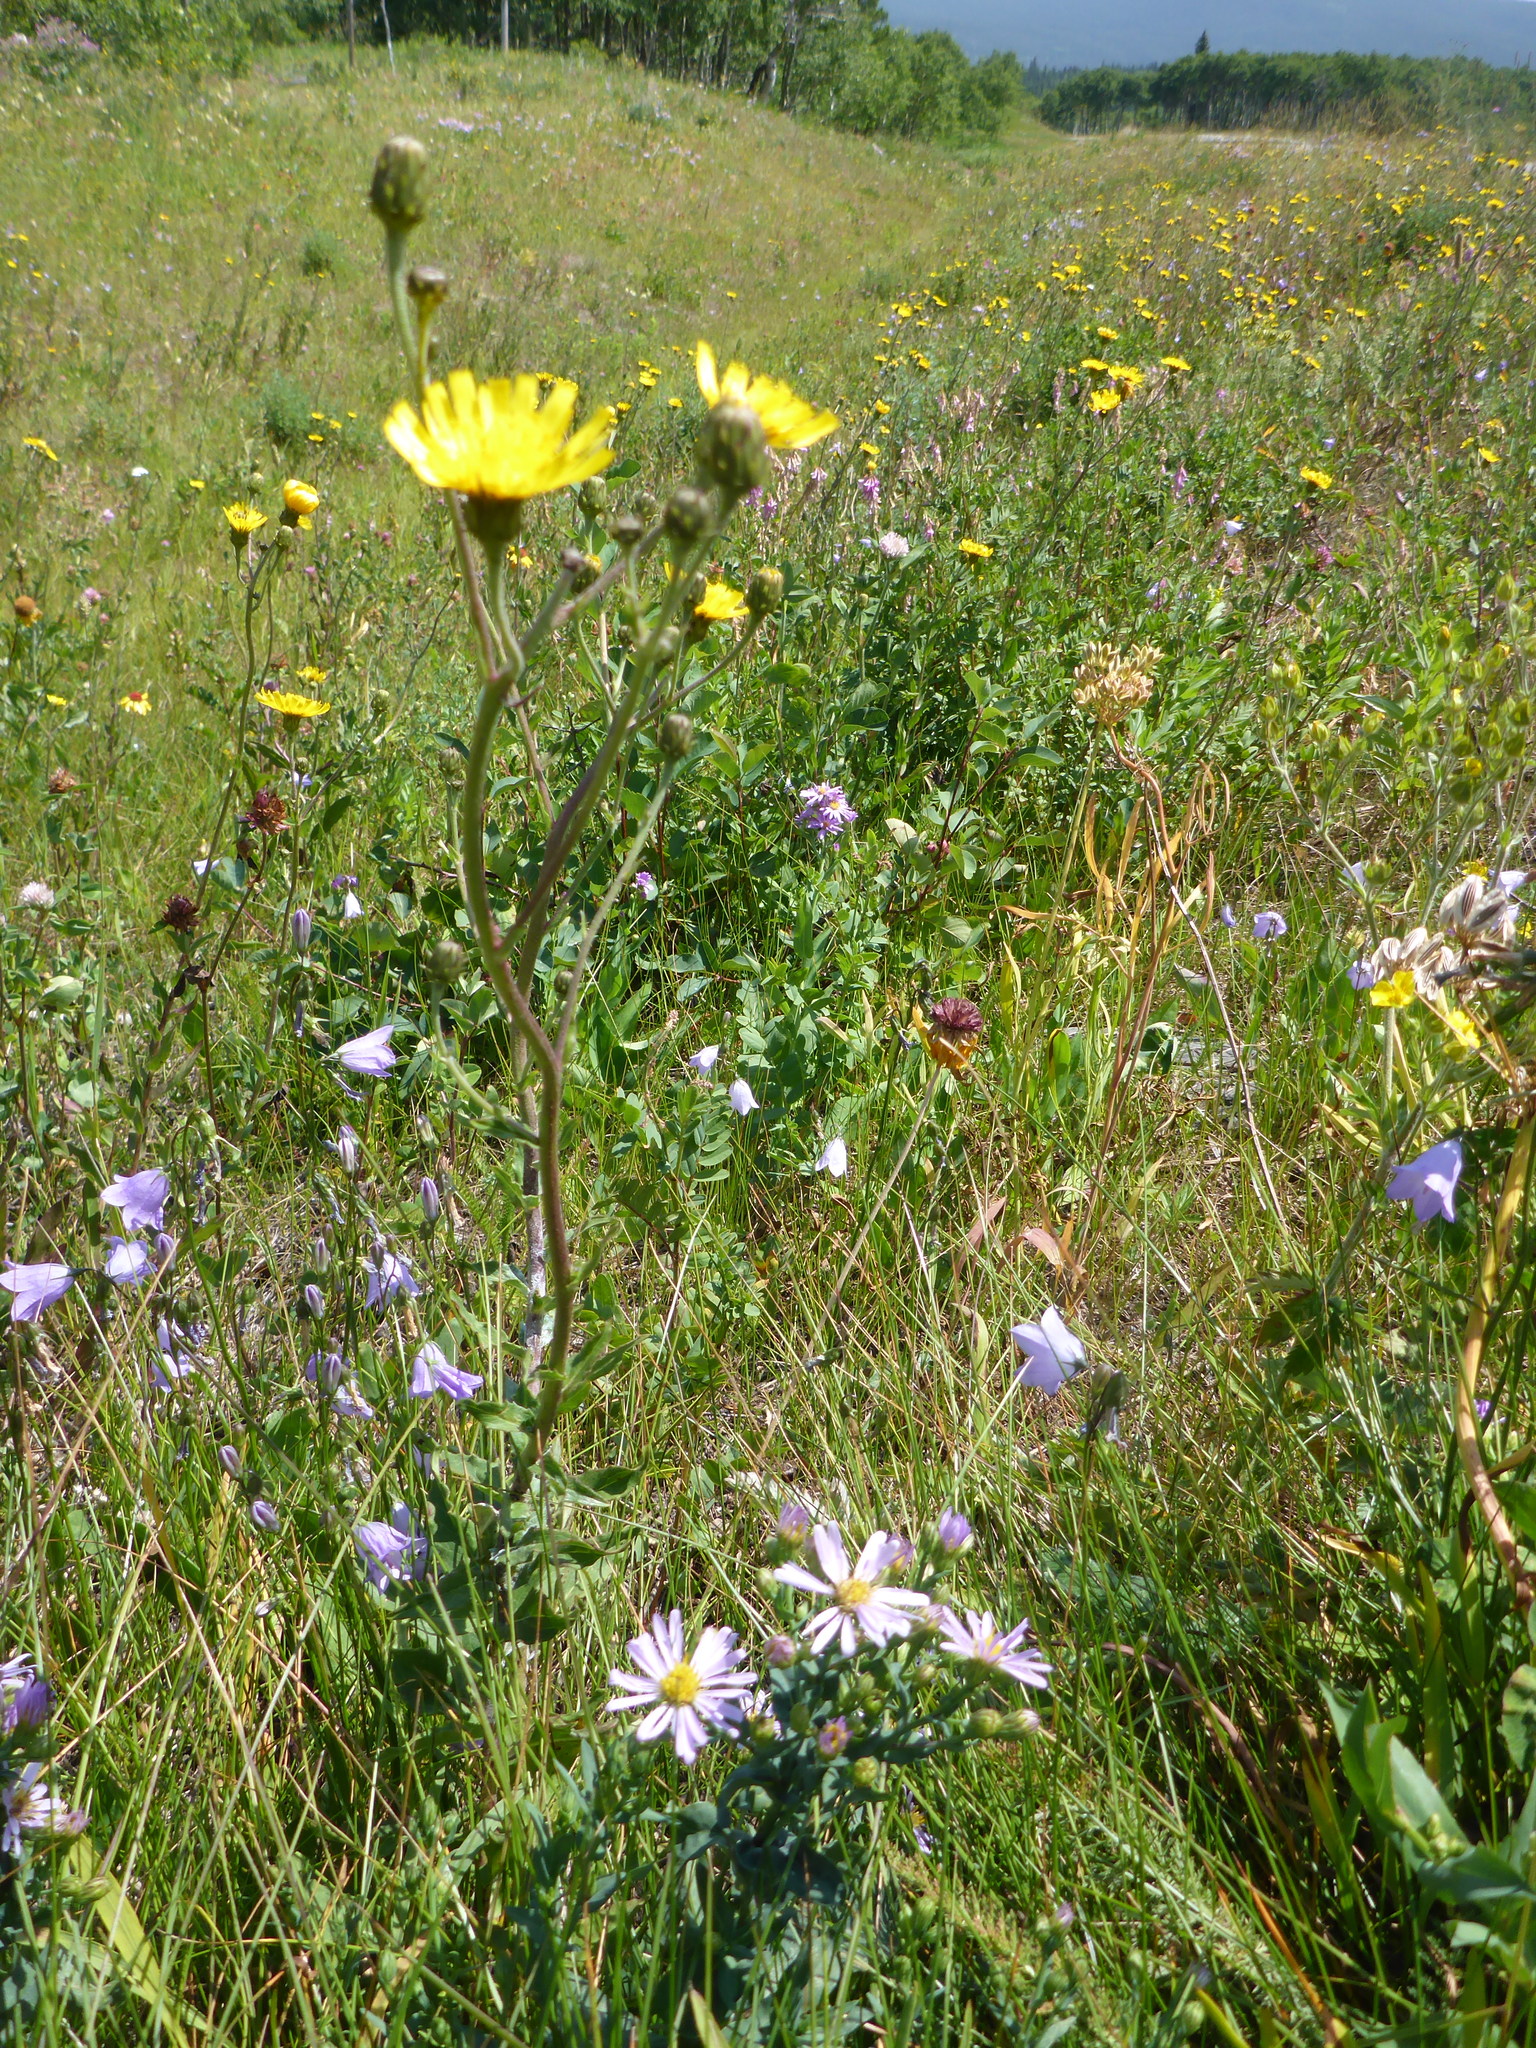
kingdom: Plantae
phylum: Tracheophyta
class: Magnoliopsida
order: Asterales
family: Asteraceae
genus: Hieracium
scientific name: Hieracium umbellatum
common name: Northern hawkweed
